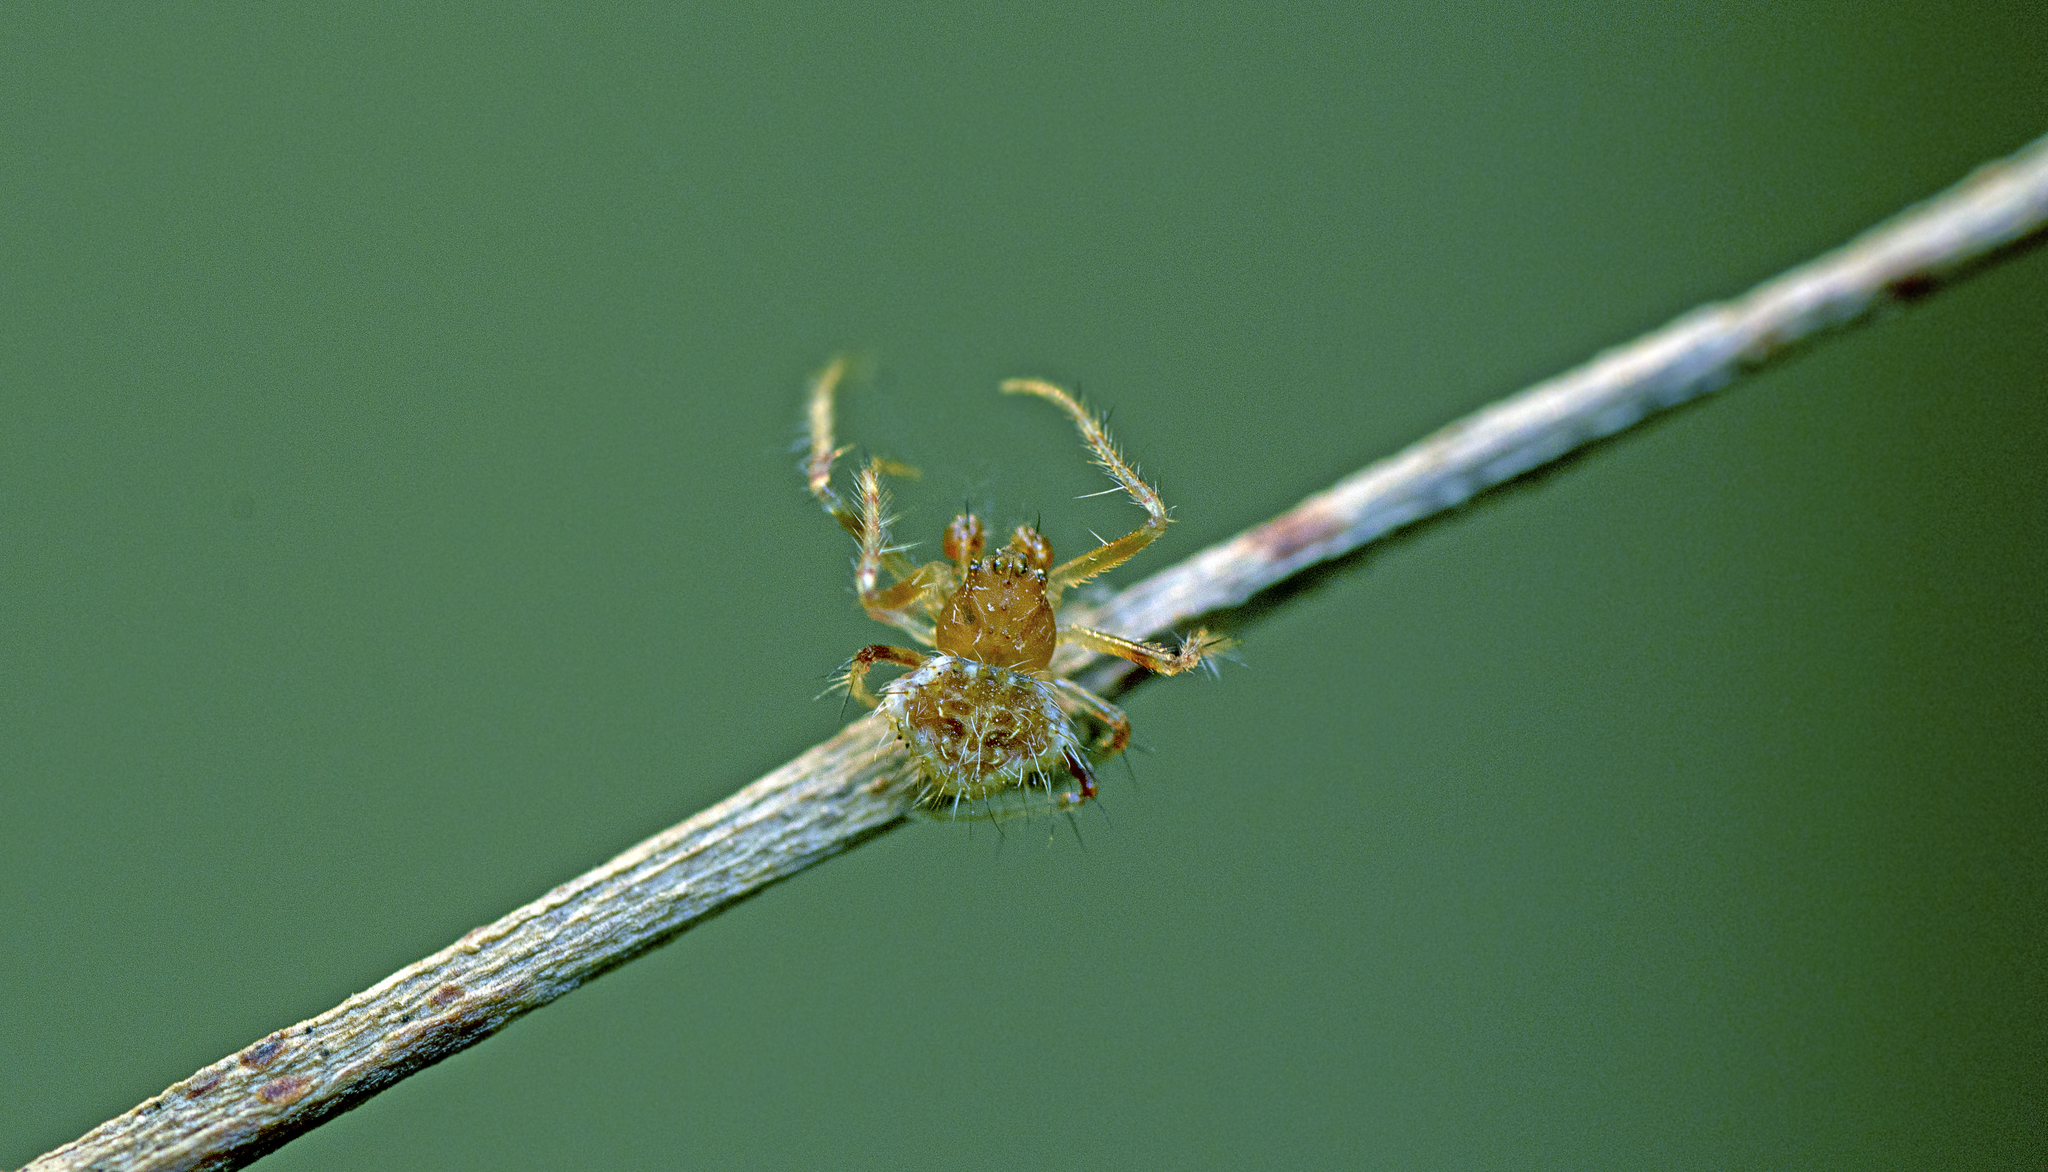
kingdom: Animalia
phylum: Arthropoda
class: Arachnida
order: Araneae
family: Araneidae
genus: Poecilopachys
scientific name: Poecilopachys australasia
